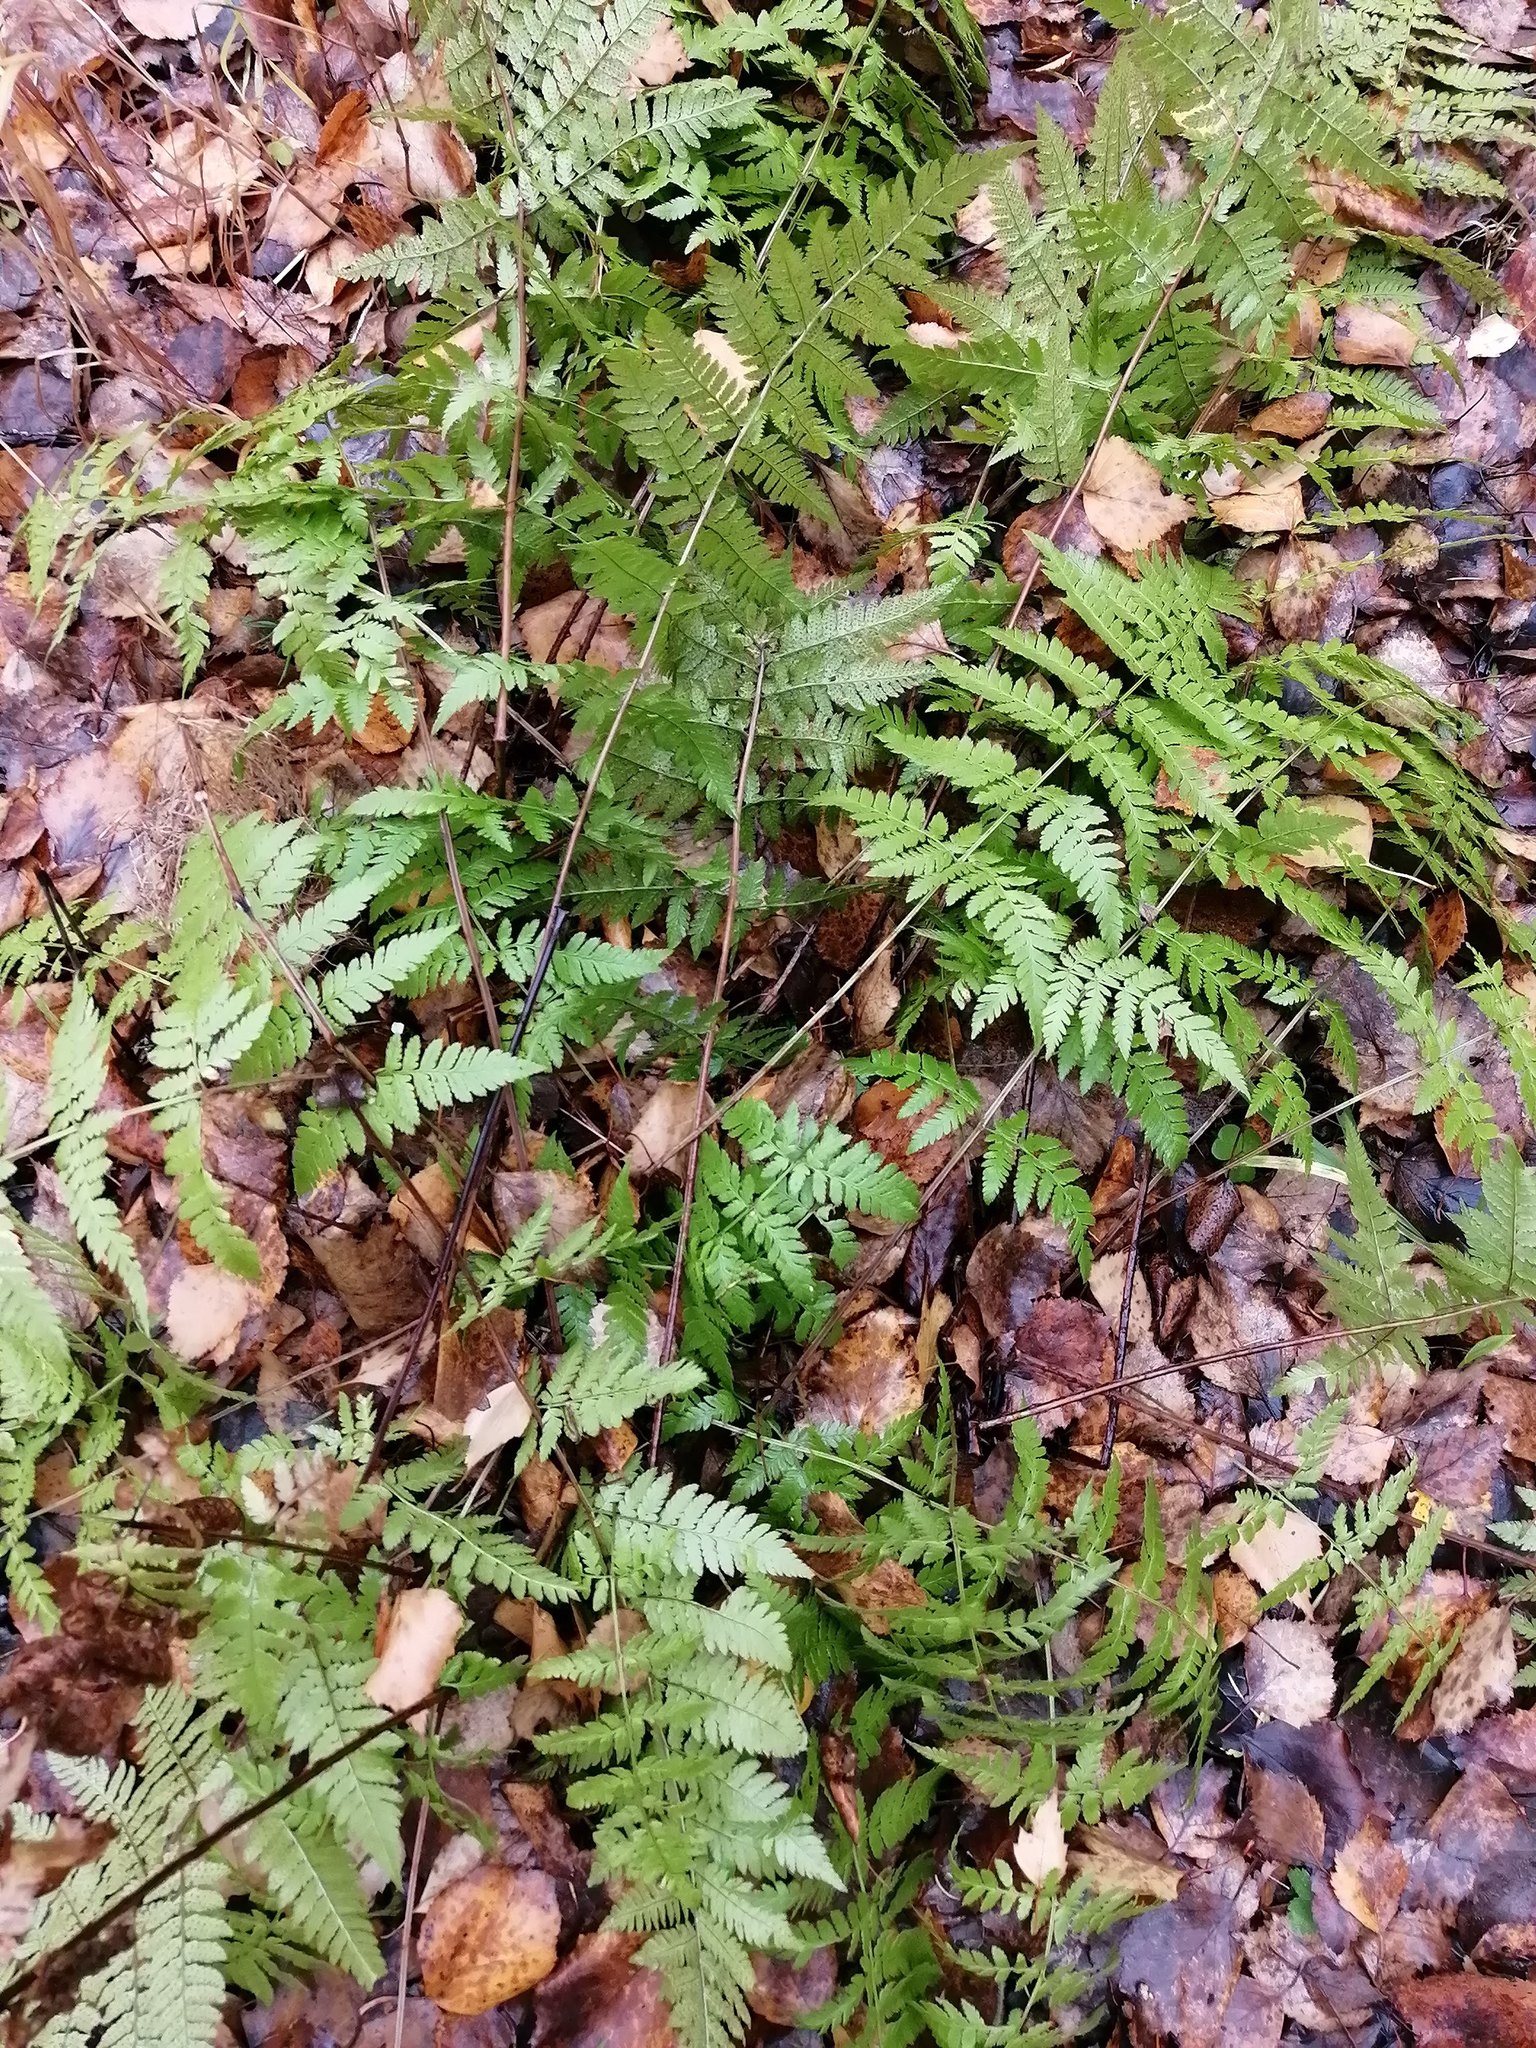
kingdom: Plantae
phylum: Tracheophyta
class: Polypodiopsida
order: Polypodiales
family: Dryopteridaceae
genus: Dryopteris
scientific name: Dryopteris carthusiana
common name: Narrow buckler-fern
